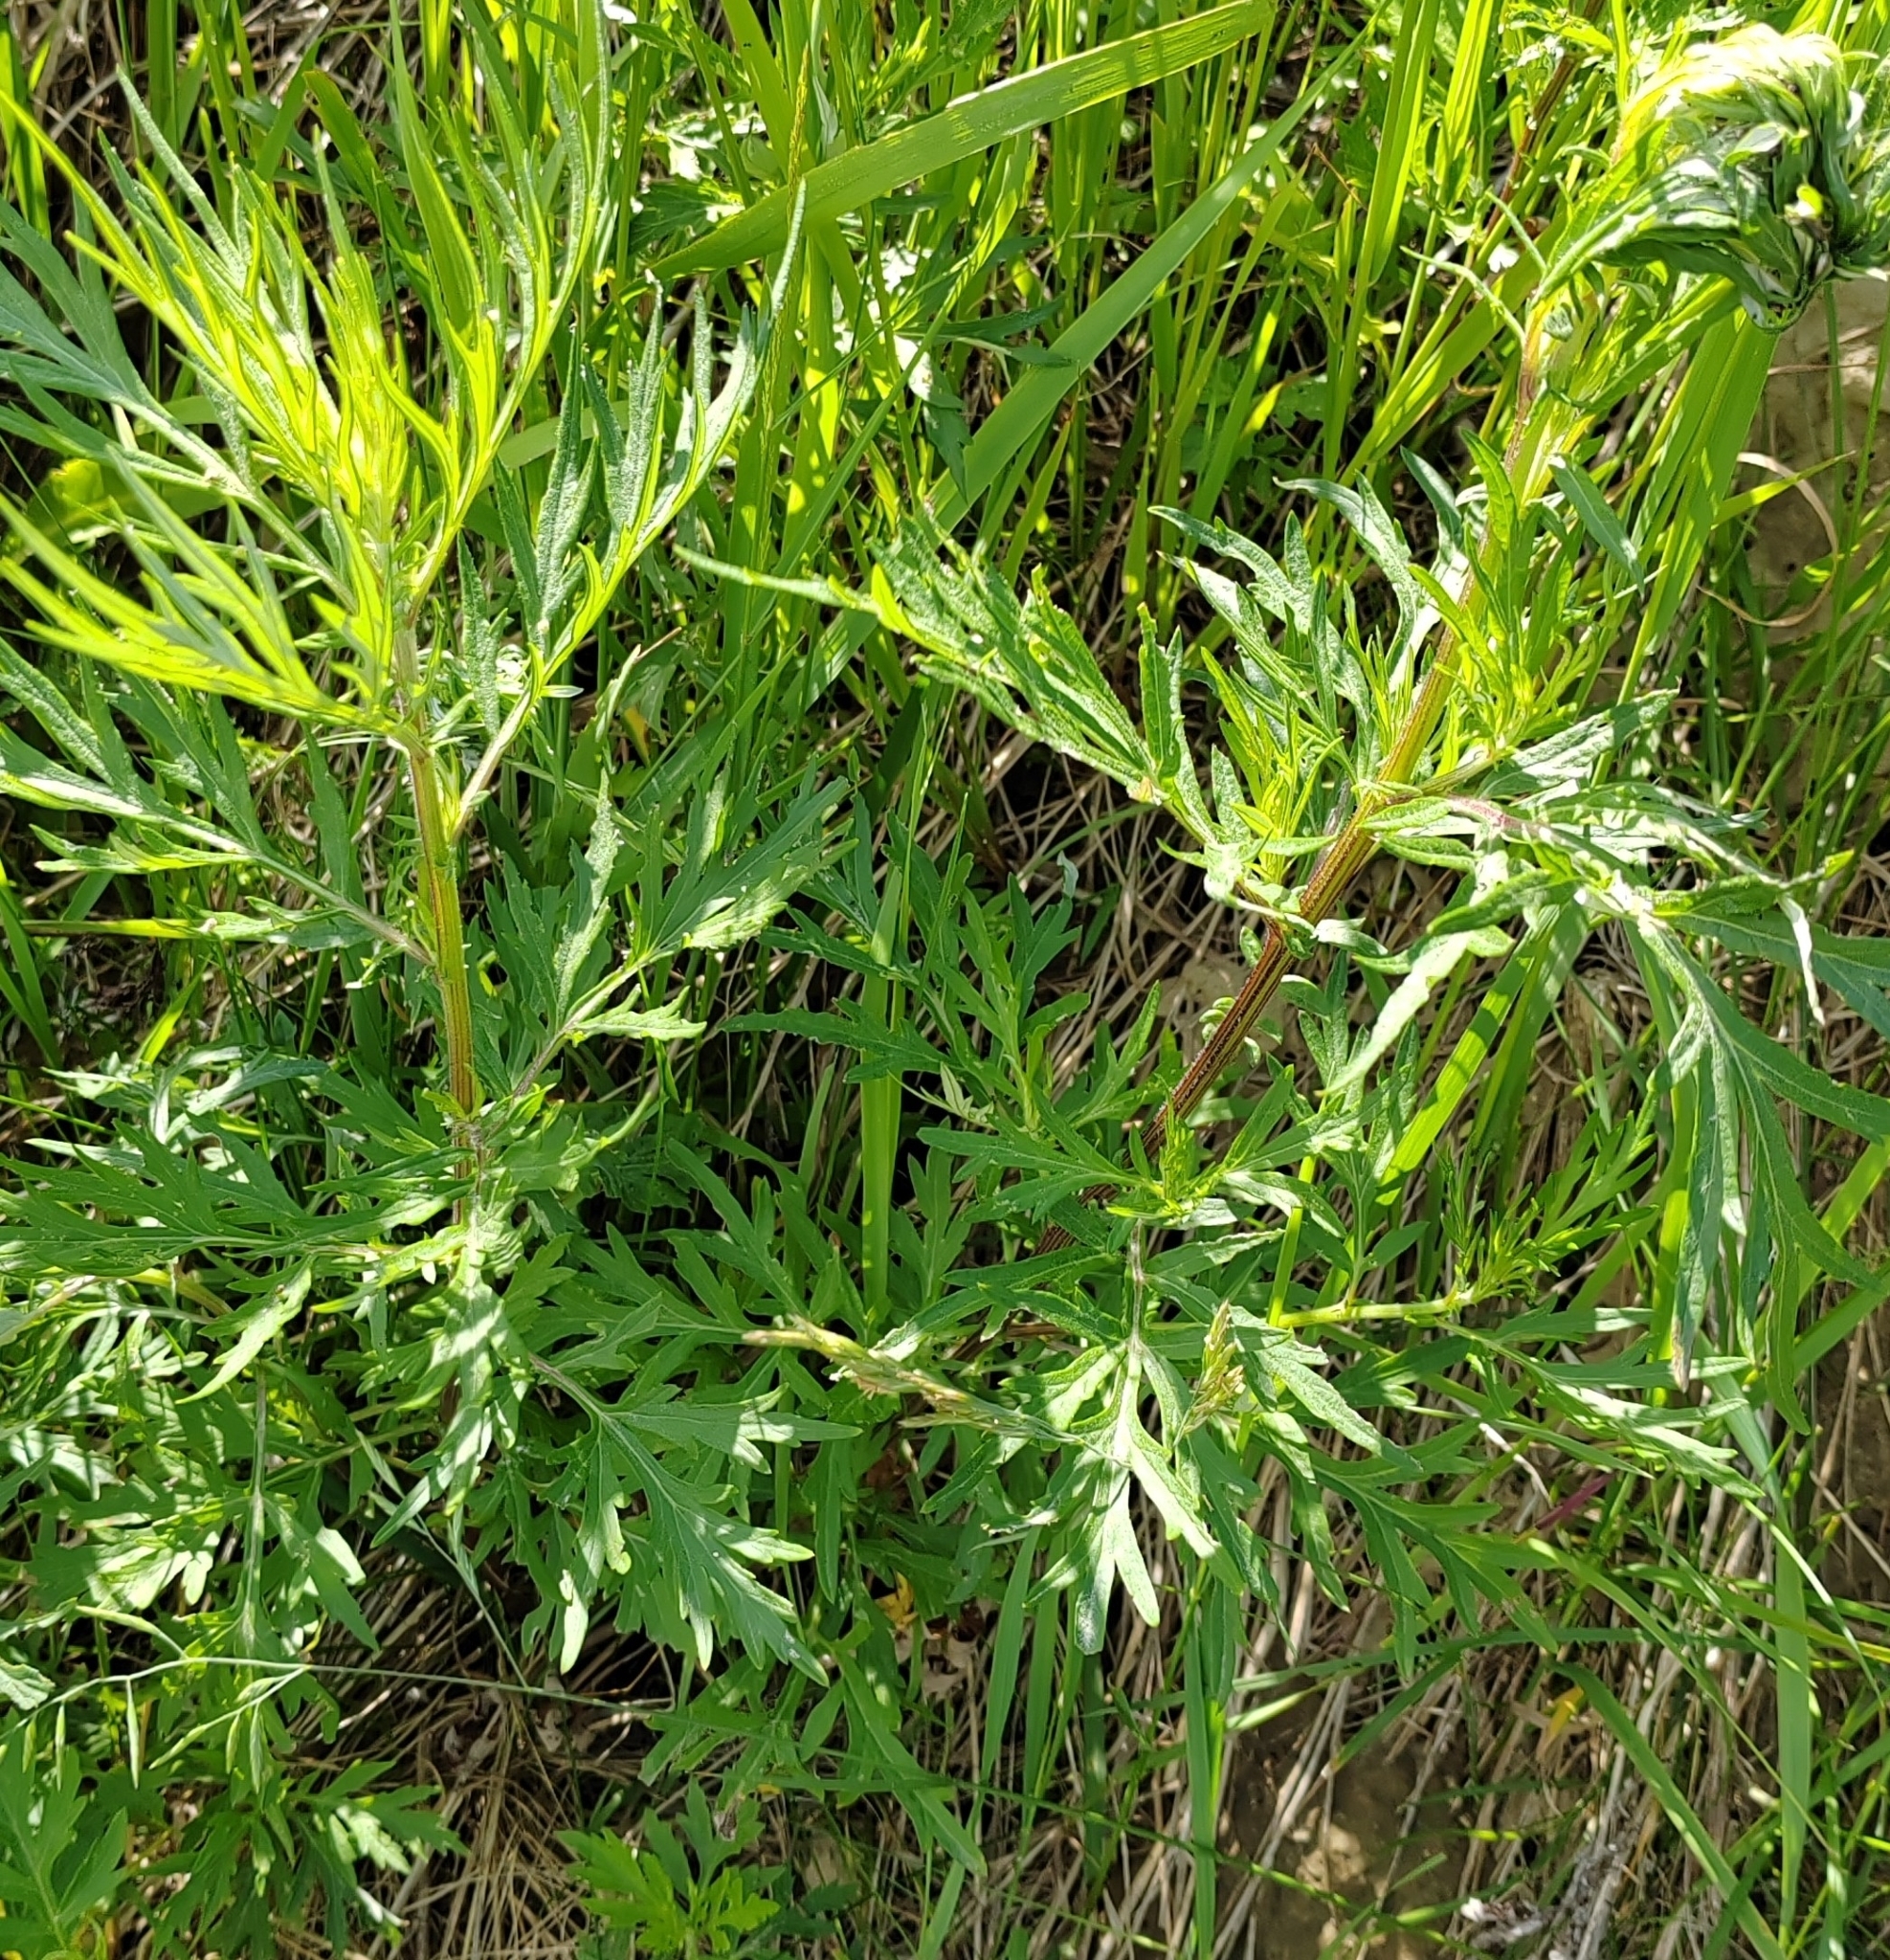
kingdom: Plantae
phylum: Tracheophyta
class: Magnoliopsida
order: Asterales
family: Asteraceae
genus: Artemisia
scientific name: Artemisia vulgaris
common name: Mugwort
